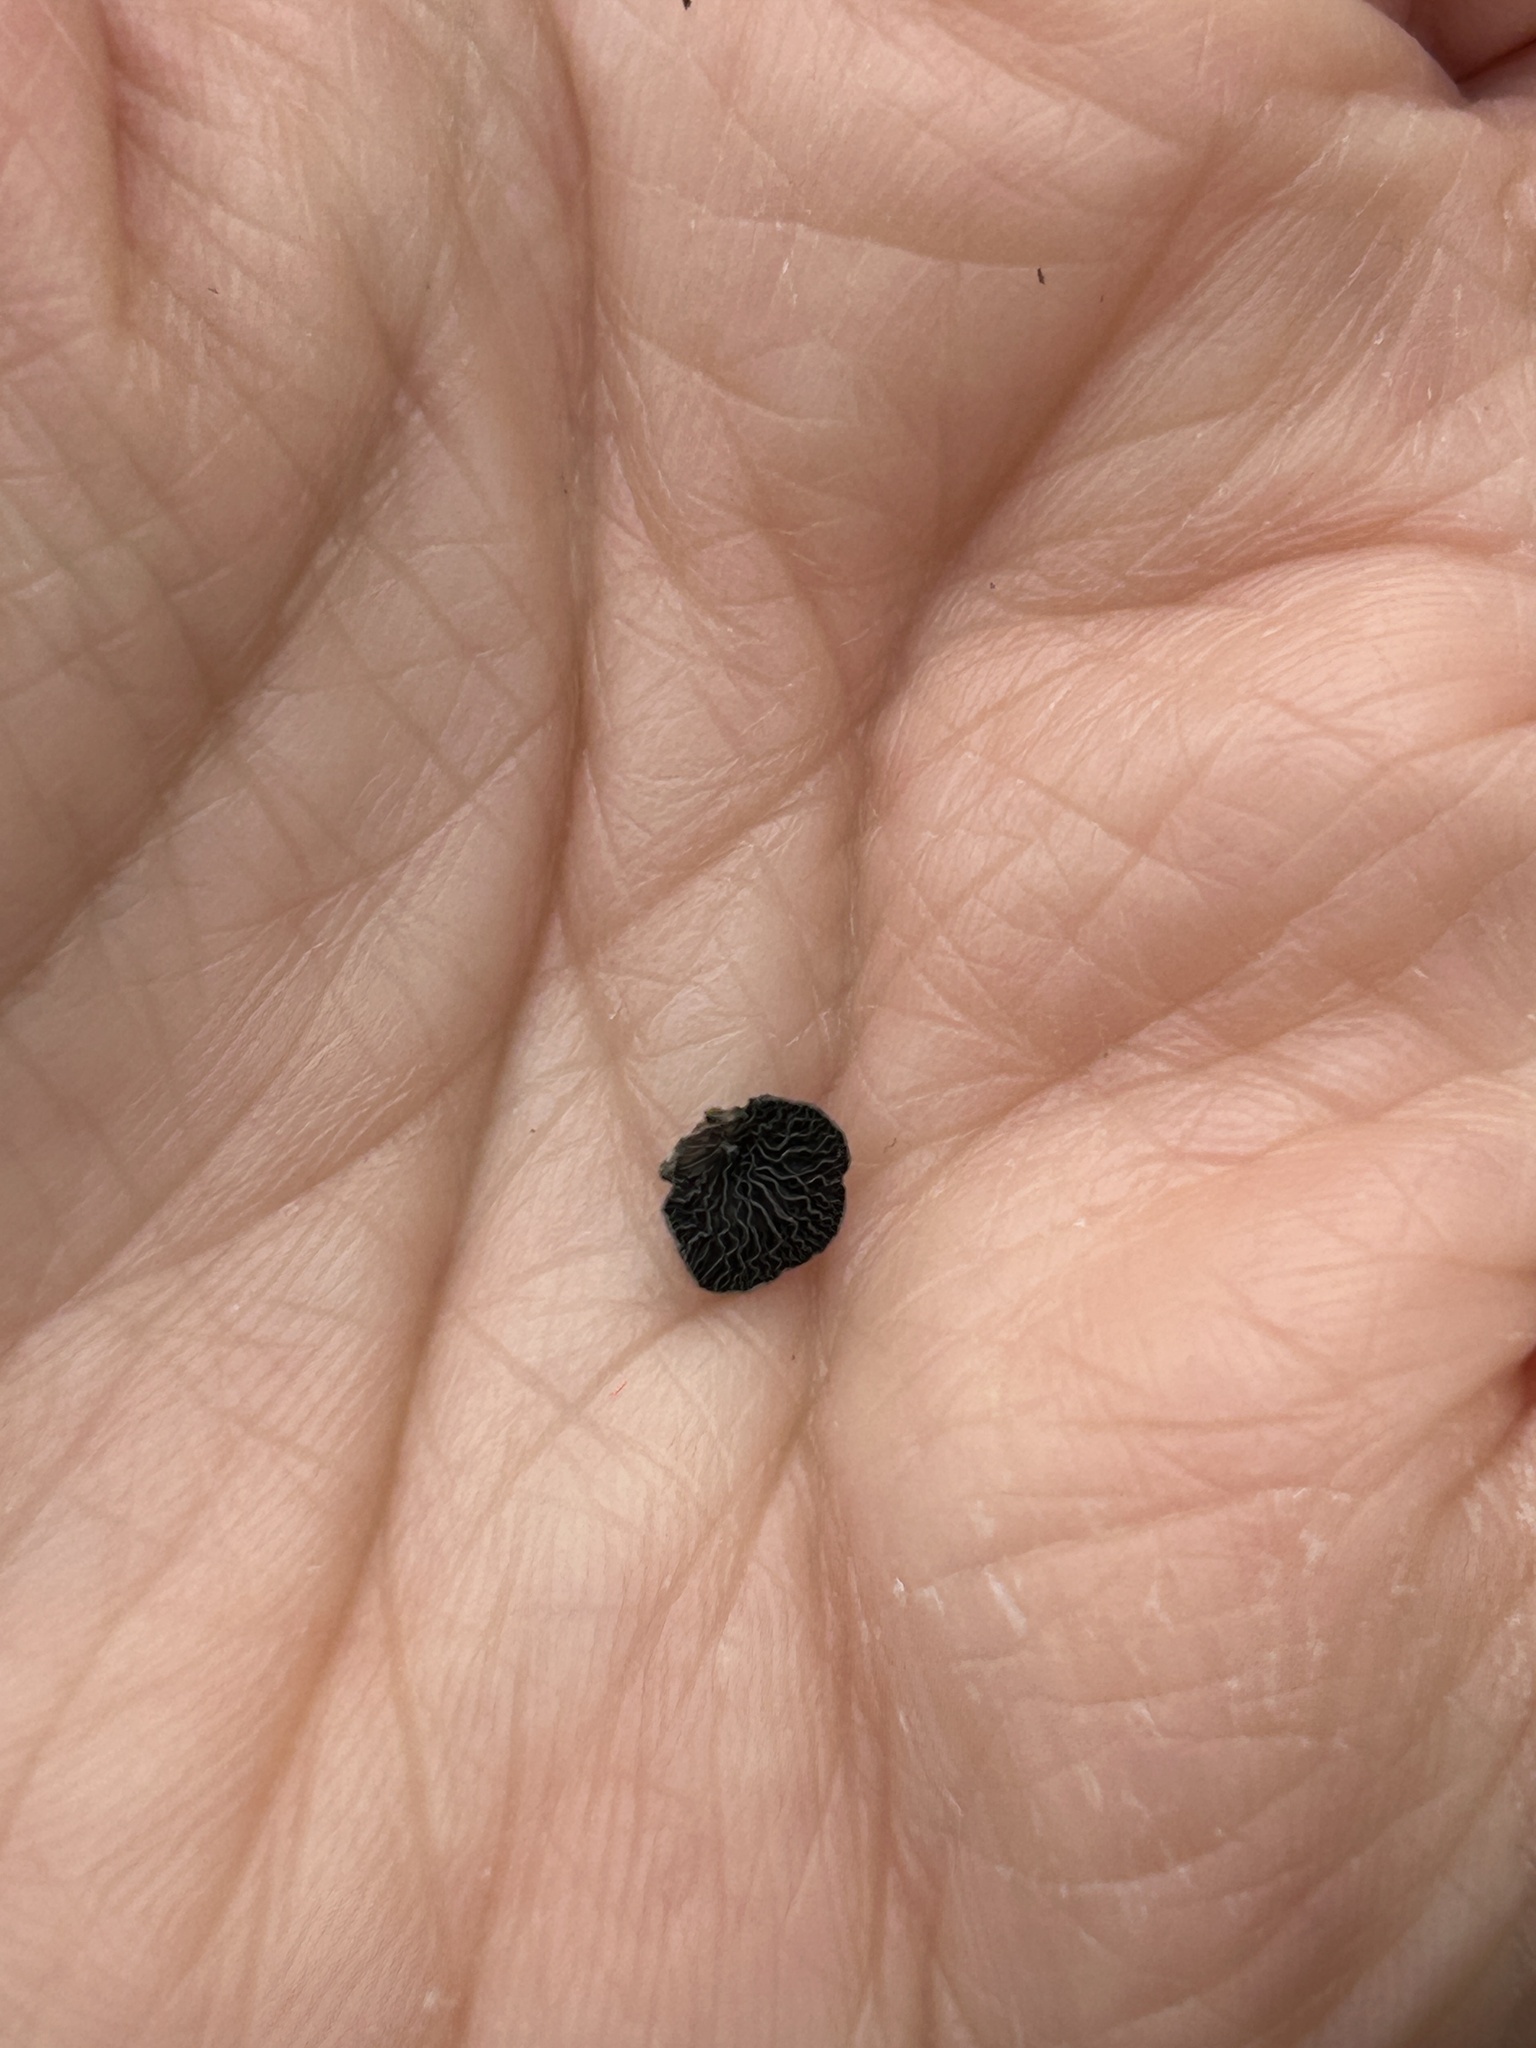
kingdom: Fungi
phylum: Basidiomycota
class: Agaricomycetes
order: Agaricales
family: Pleurotaceae
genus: Resupinatus
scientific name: Resupinatus applicatus
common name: Smoked oysterling
